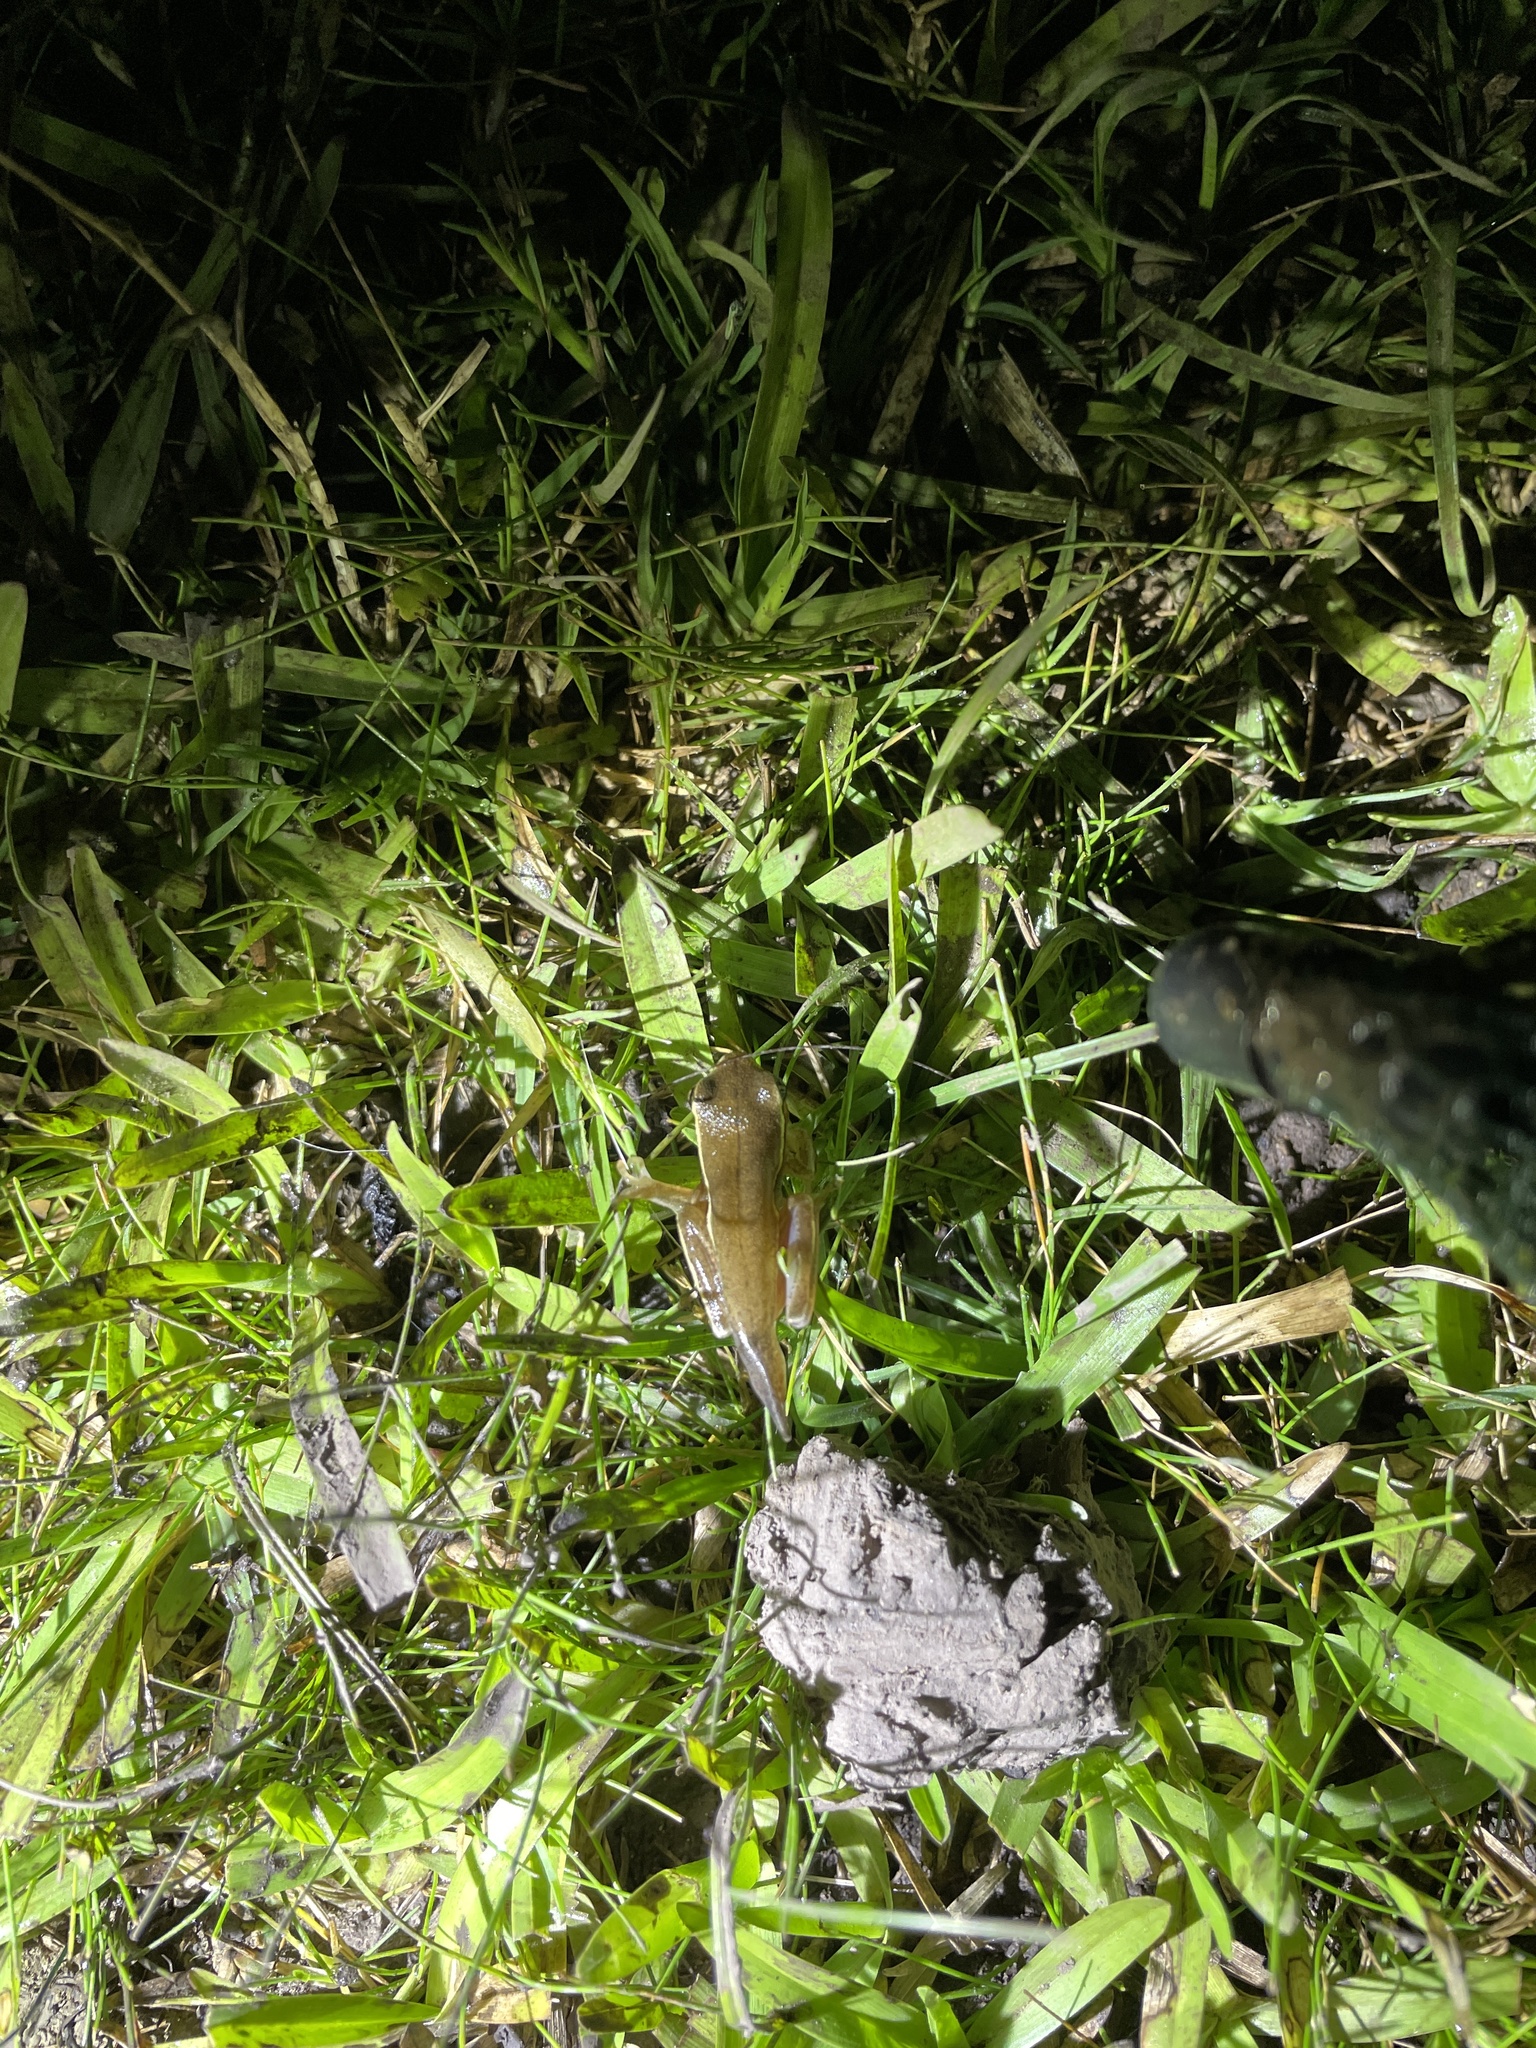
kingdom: Animalia
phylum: Chordata
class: Amphibia
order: Anura
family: Hylidae
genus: Boana
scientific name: Boana pulchella
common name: Montevideo treefrog
